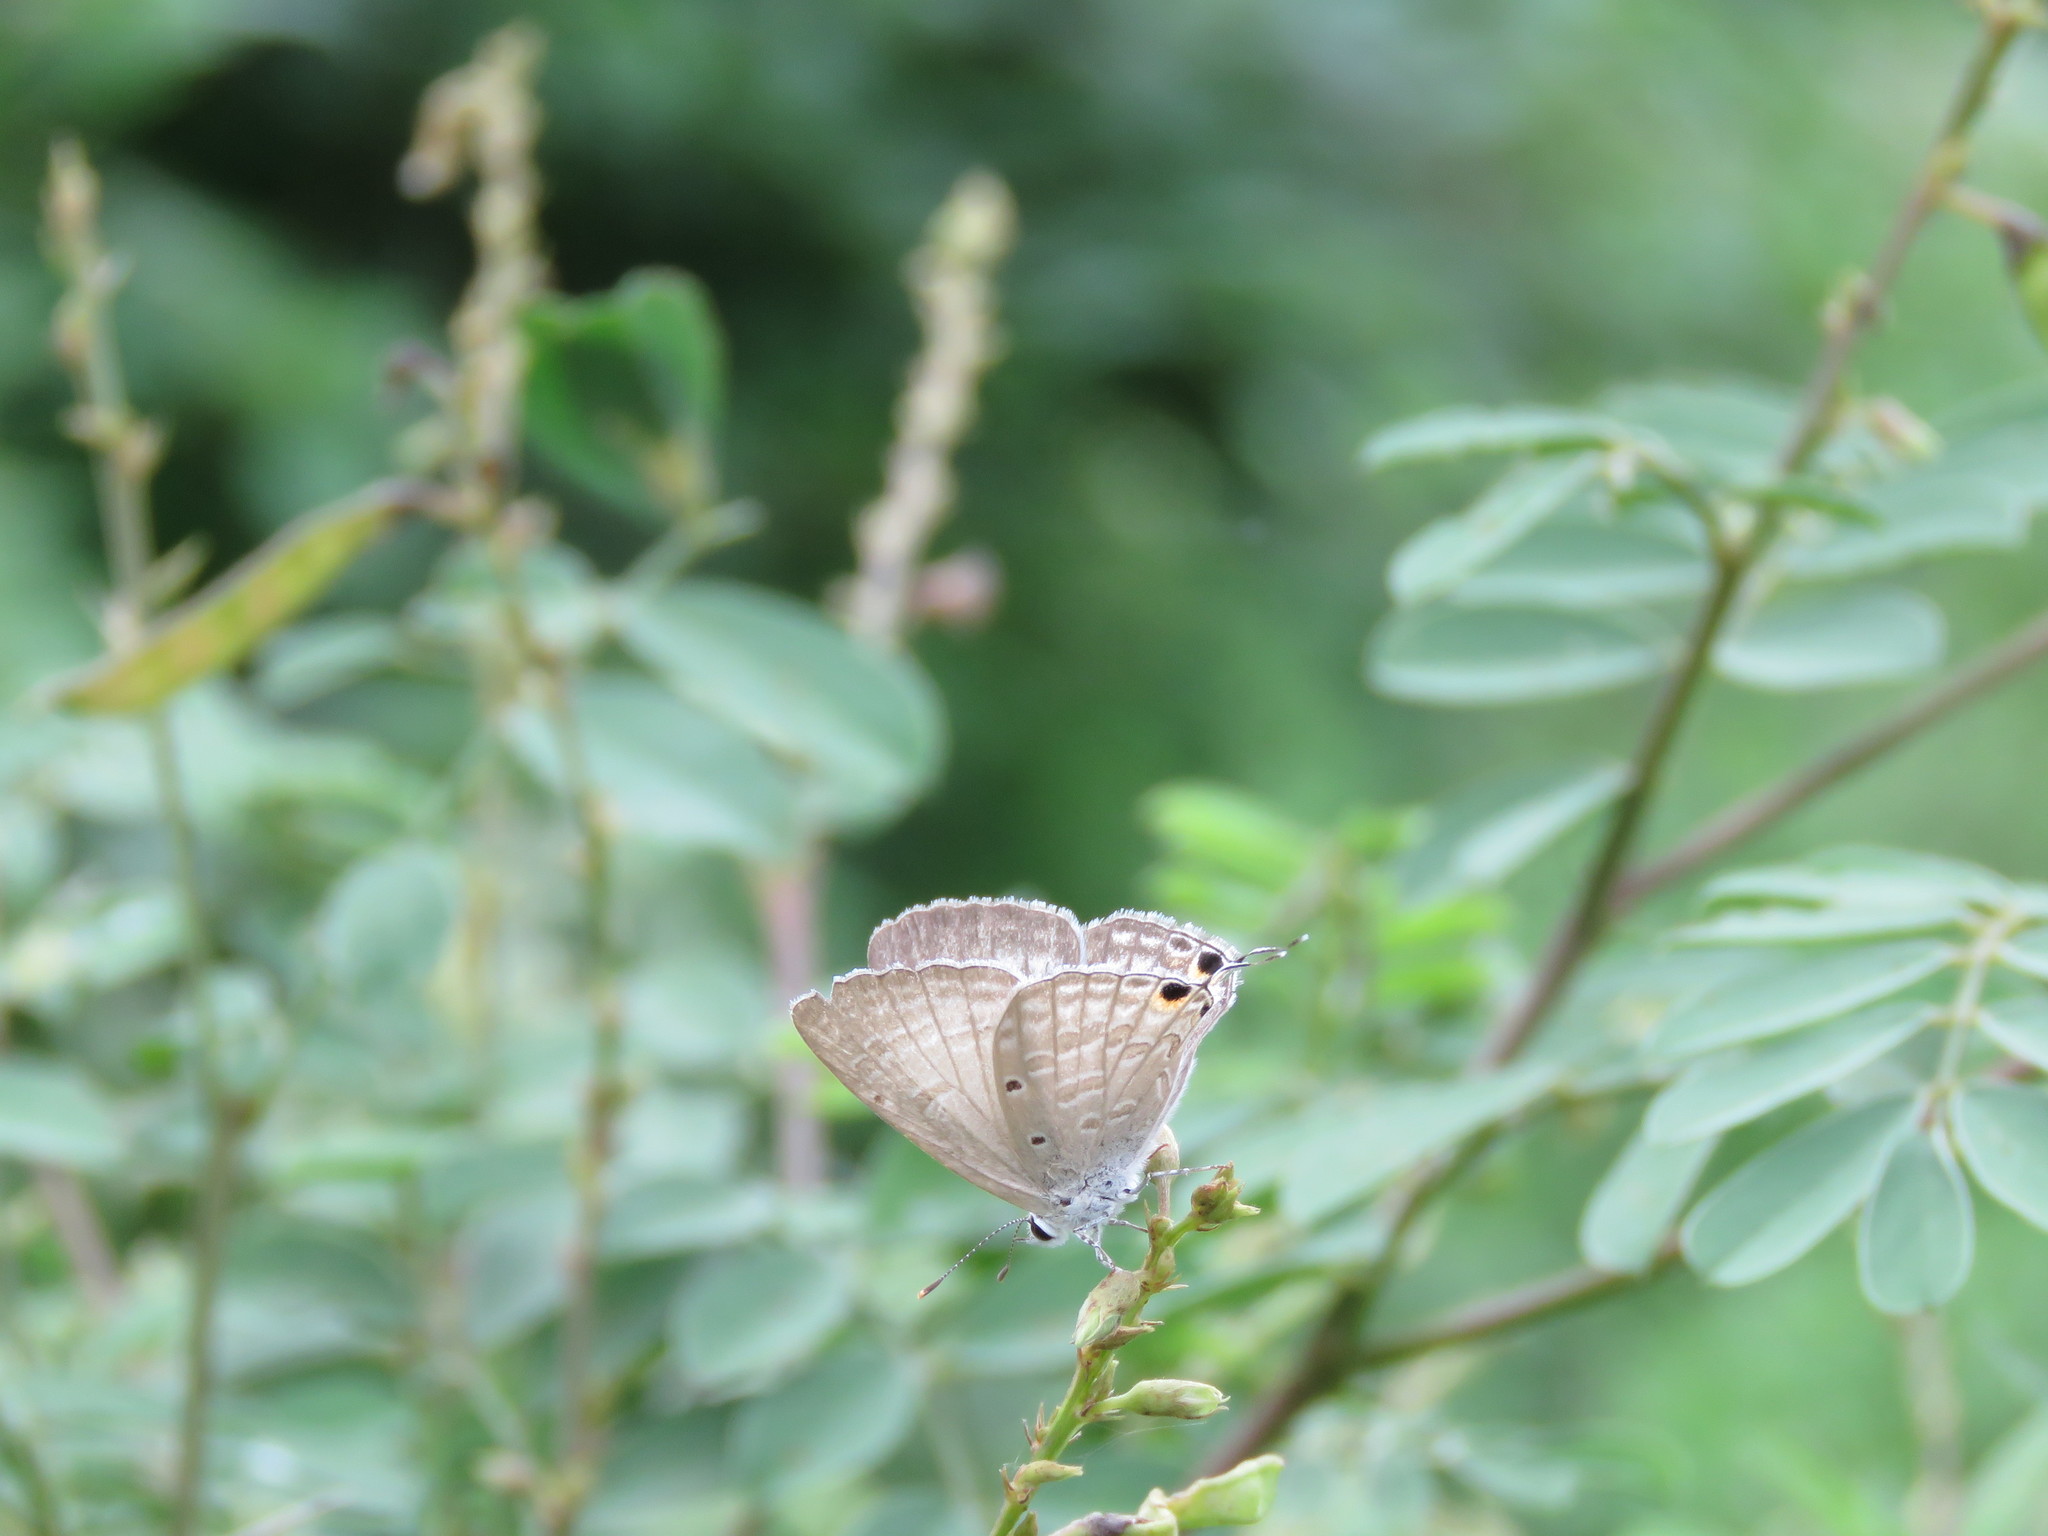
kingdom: Animalia
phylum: Arthropoda
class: Insecta
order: Lepidoptera
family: Lycaenidae
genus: Catochrysops
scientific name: Catochrysops strabo
